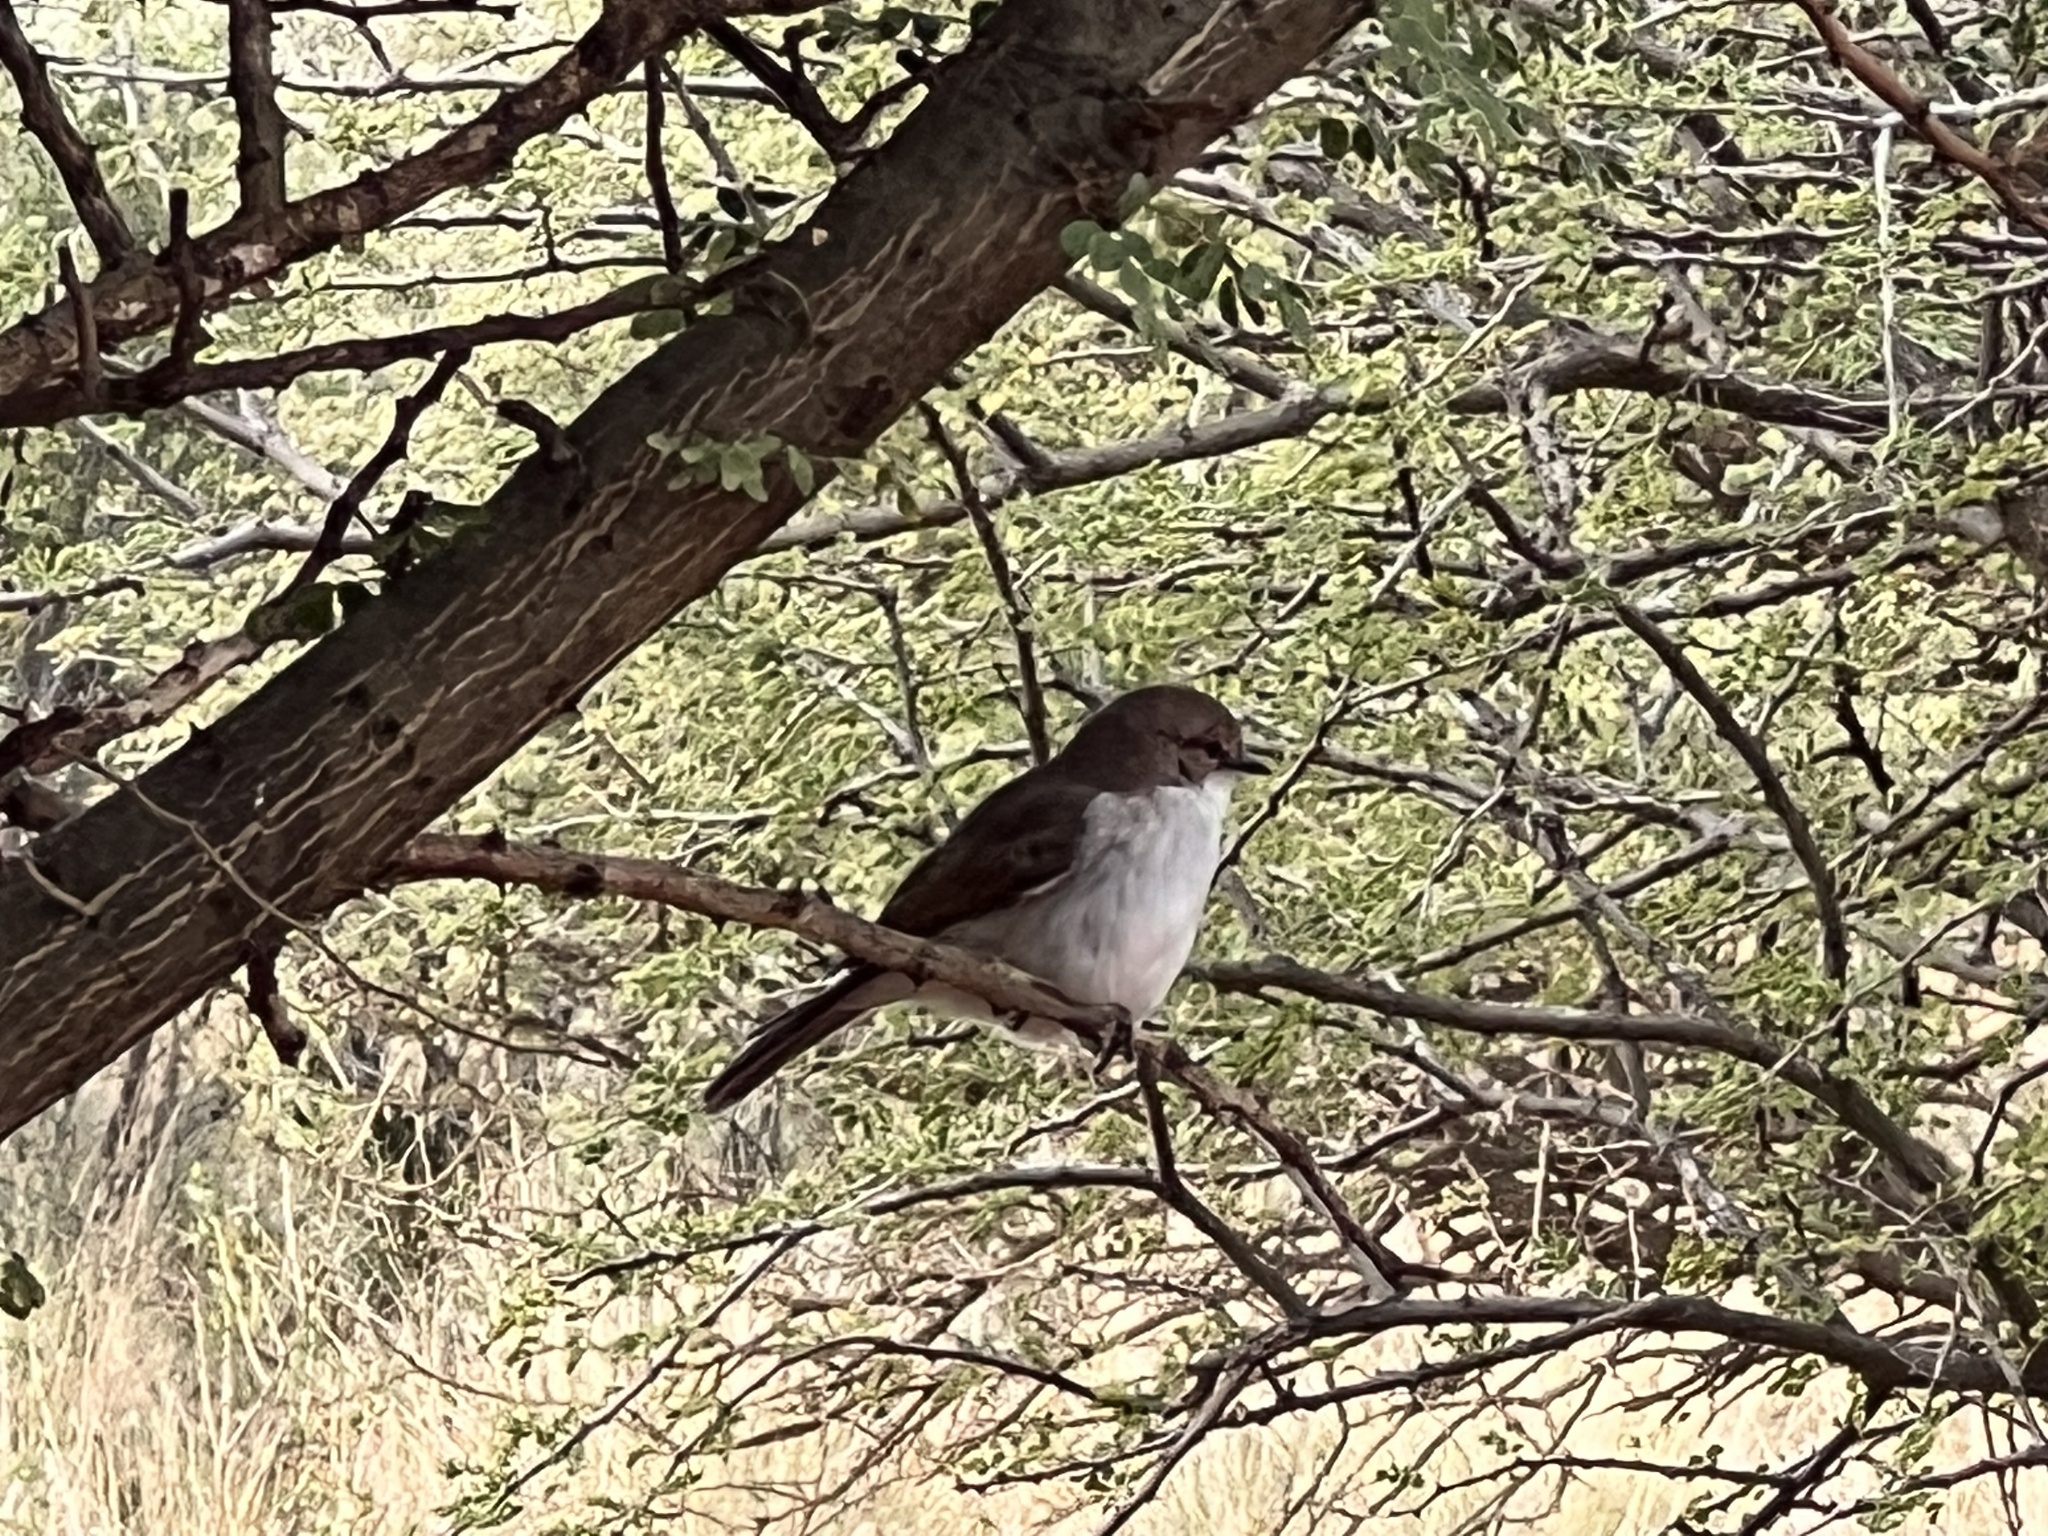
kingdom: Animalia
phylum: Chordata
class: Aves
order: Passeriformes
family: Muscicapidae
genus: Bradornis
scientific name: Bradornis mariquensis
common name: Marico flycatcher
